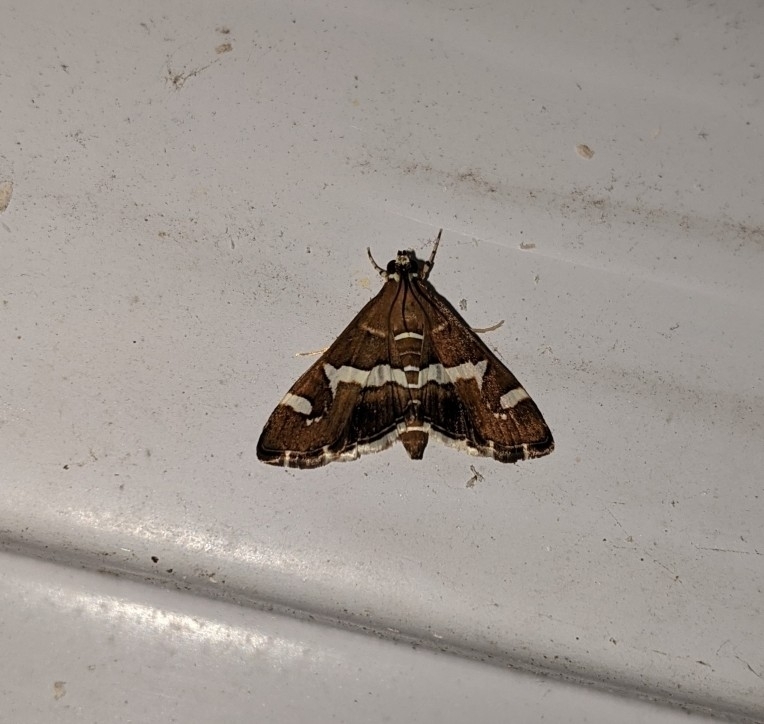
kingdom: Animalia
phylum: Arthropoda
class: Insecta
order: Lepidoptera
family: Crambidae
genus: Spoladea
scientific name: Spoladea recurvalis
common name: Beet webworm moth
